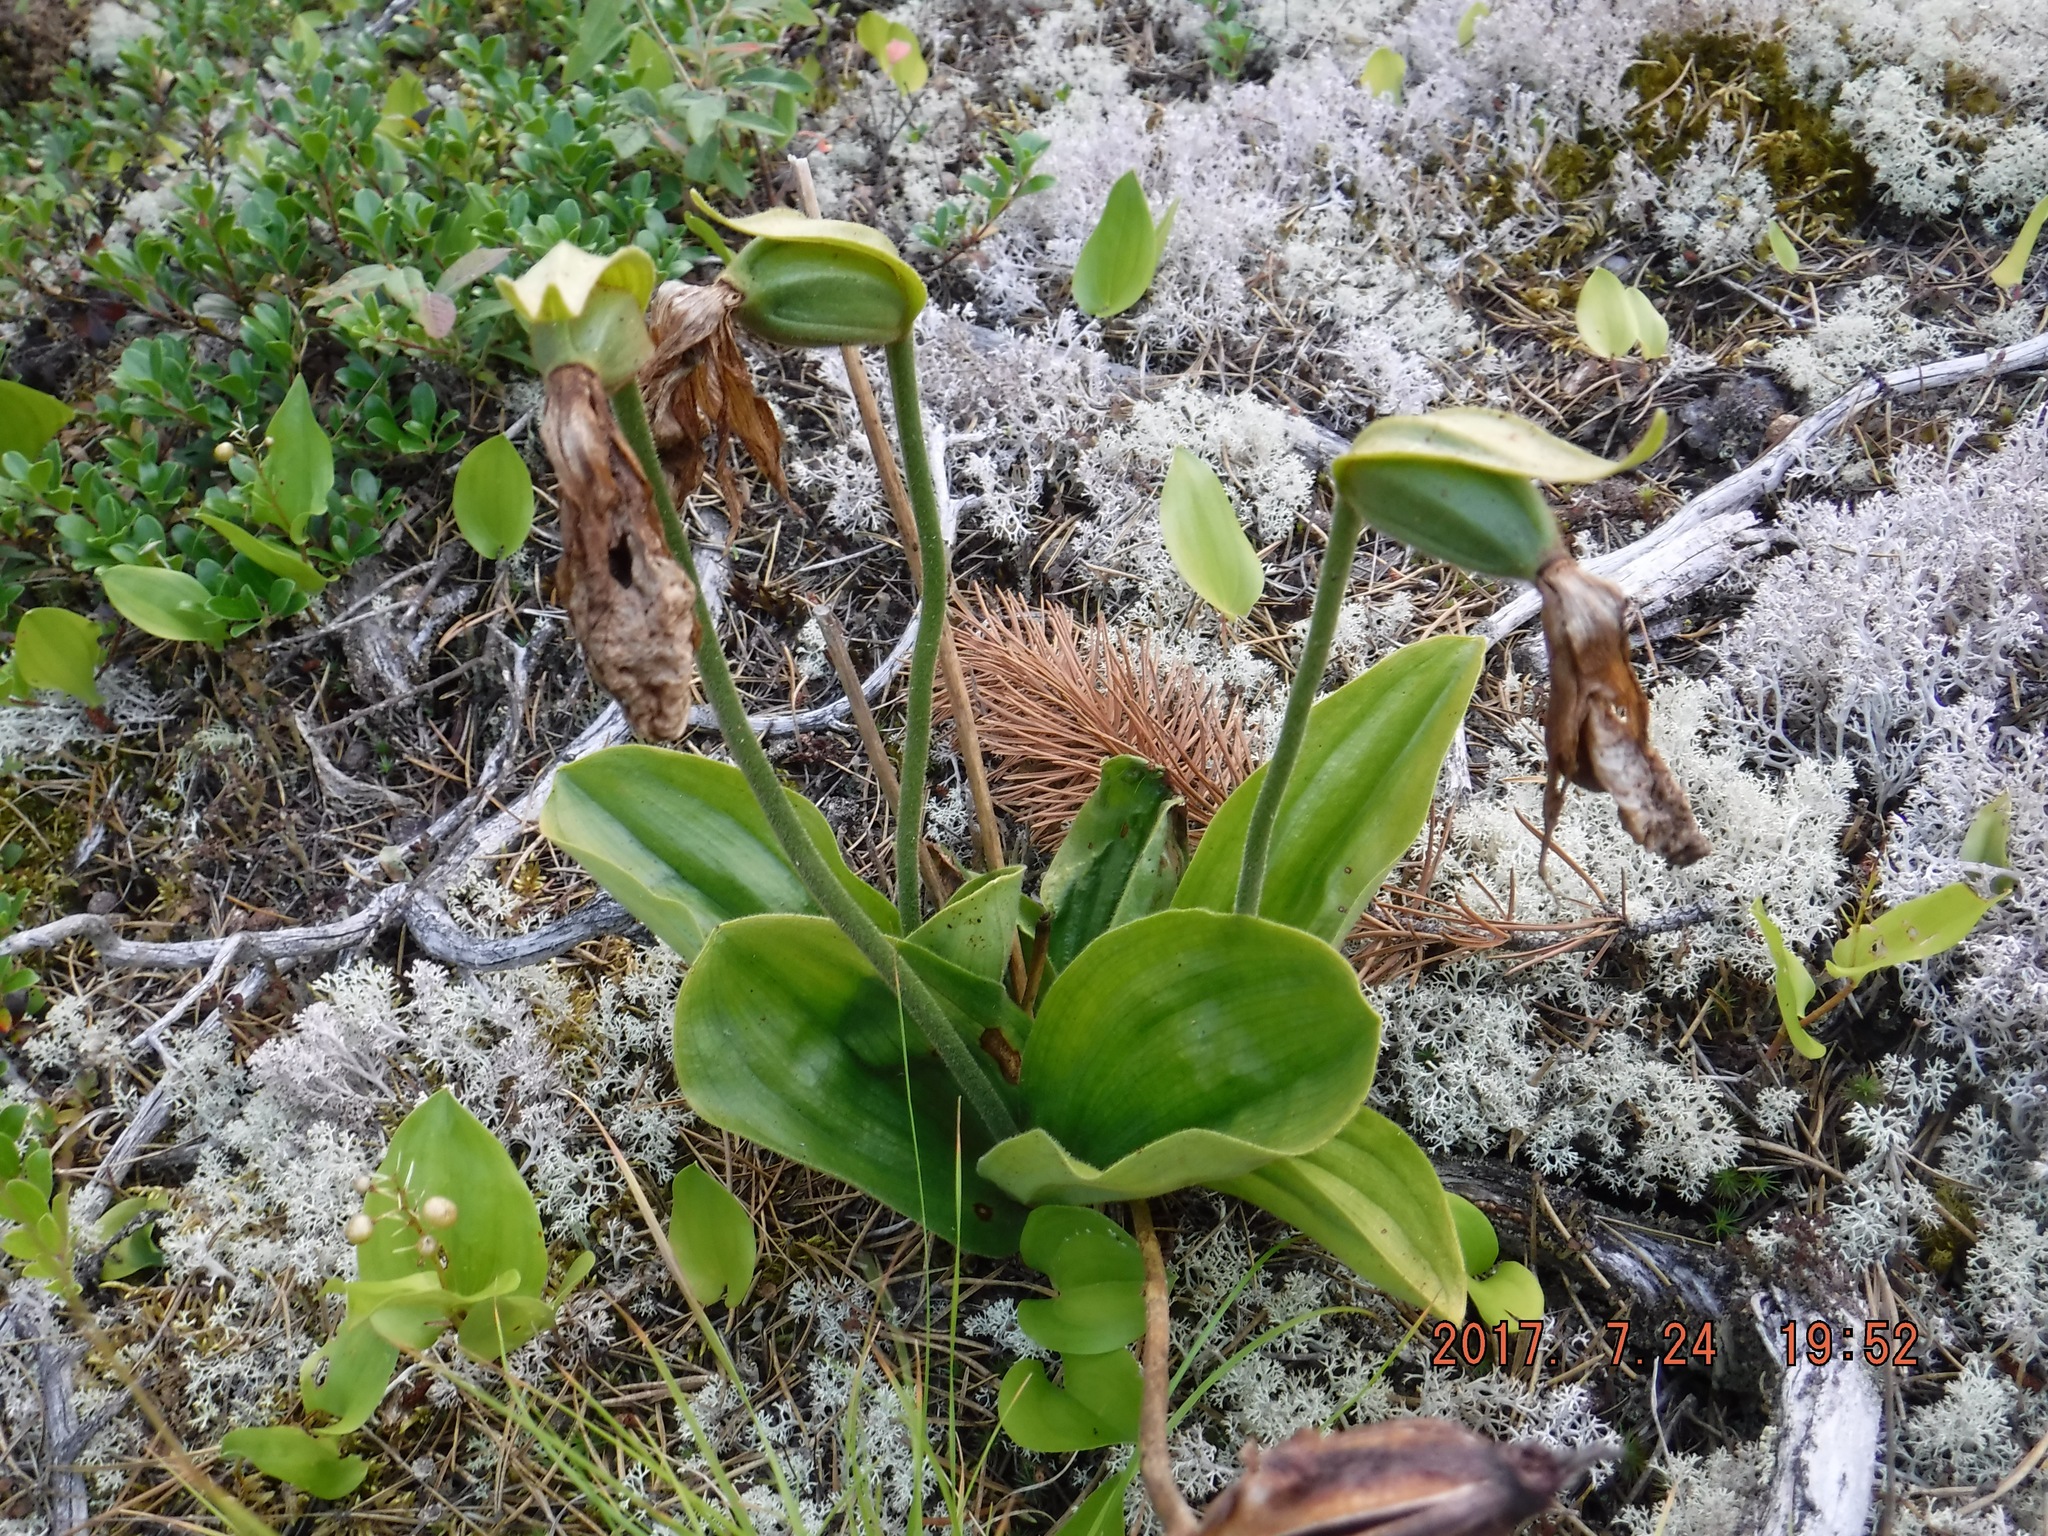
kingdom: Plantae
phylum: Tracheophyta
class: Liliopsida
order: Asparagales
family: Orchidaceae
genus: Cypripedium
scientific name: Cypripedium acaule
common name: Pink lady's-slipper
